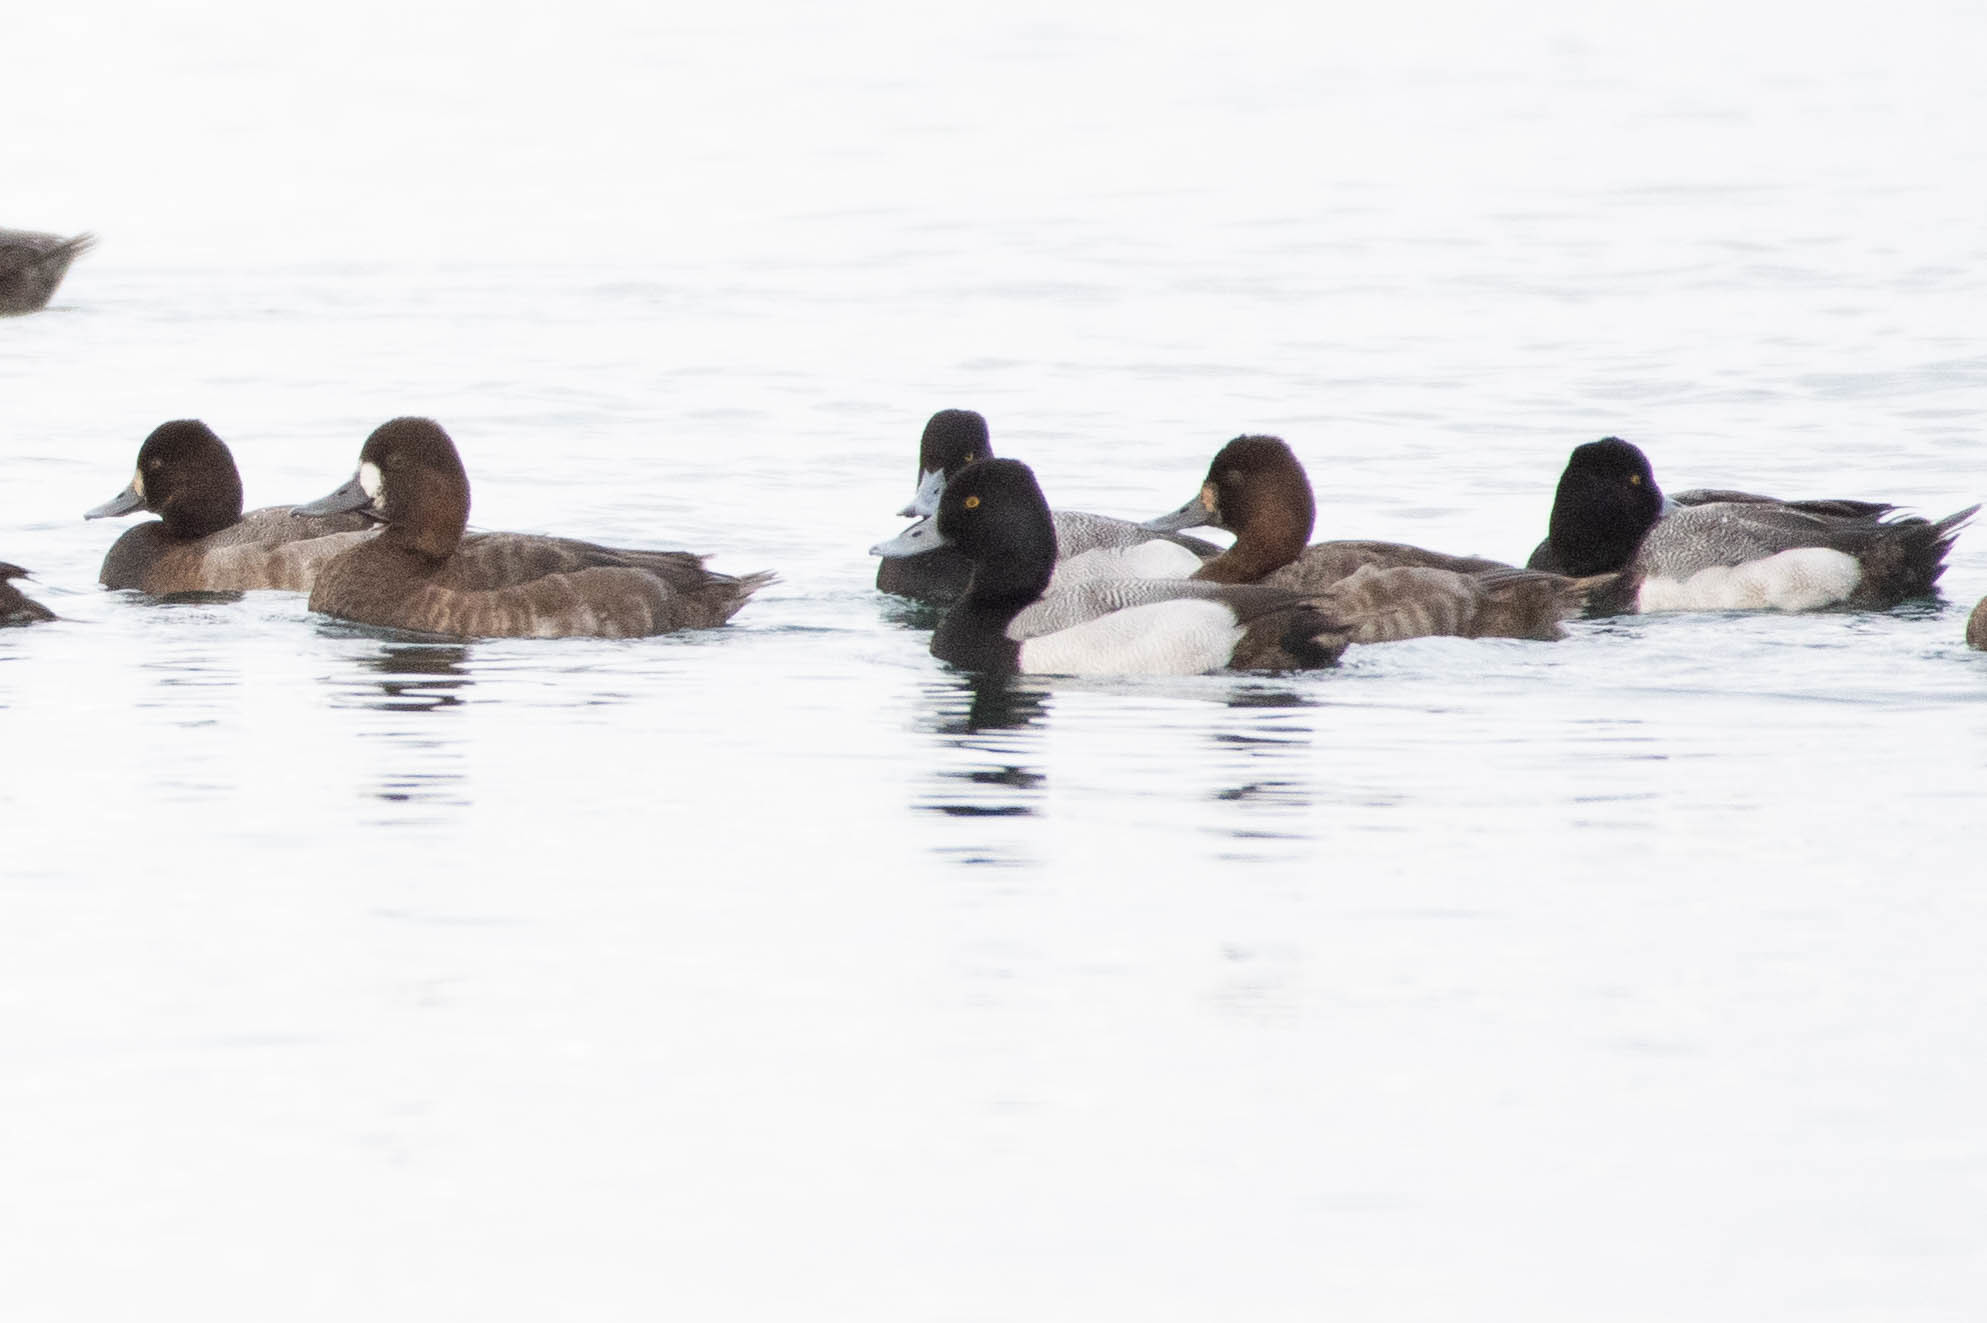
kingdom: Animalia
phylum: Chordata
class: Aves
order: Anseriformes
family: Anatidae
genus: Aythya
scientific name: Aythya affinis
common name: Lesser scaup
